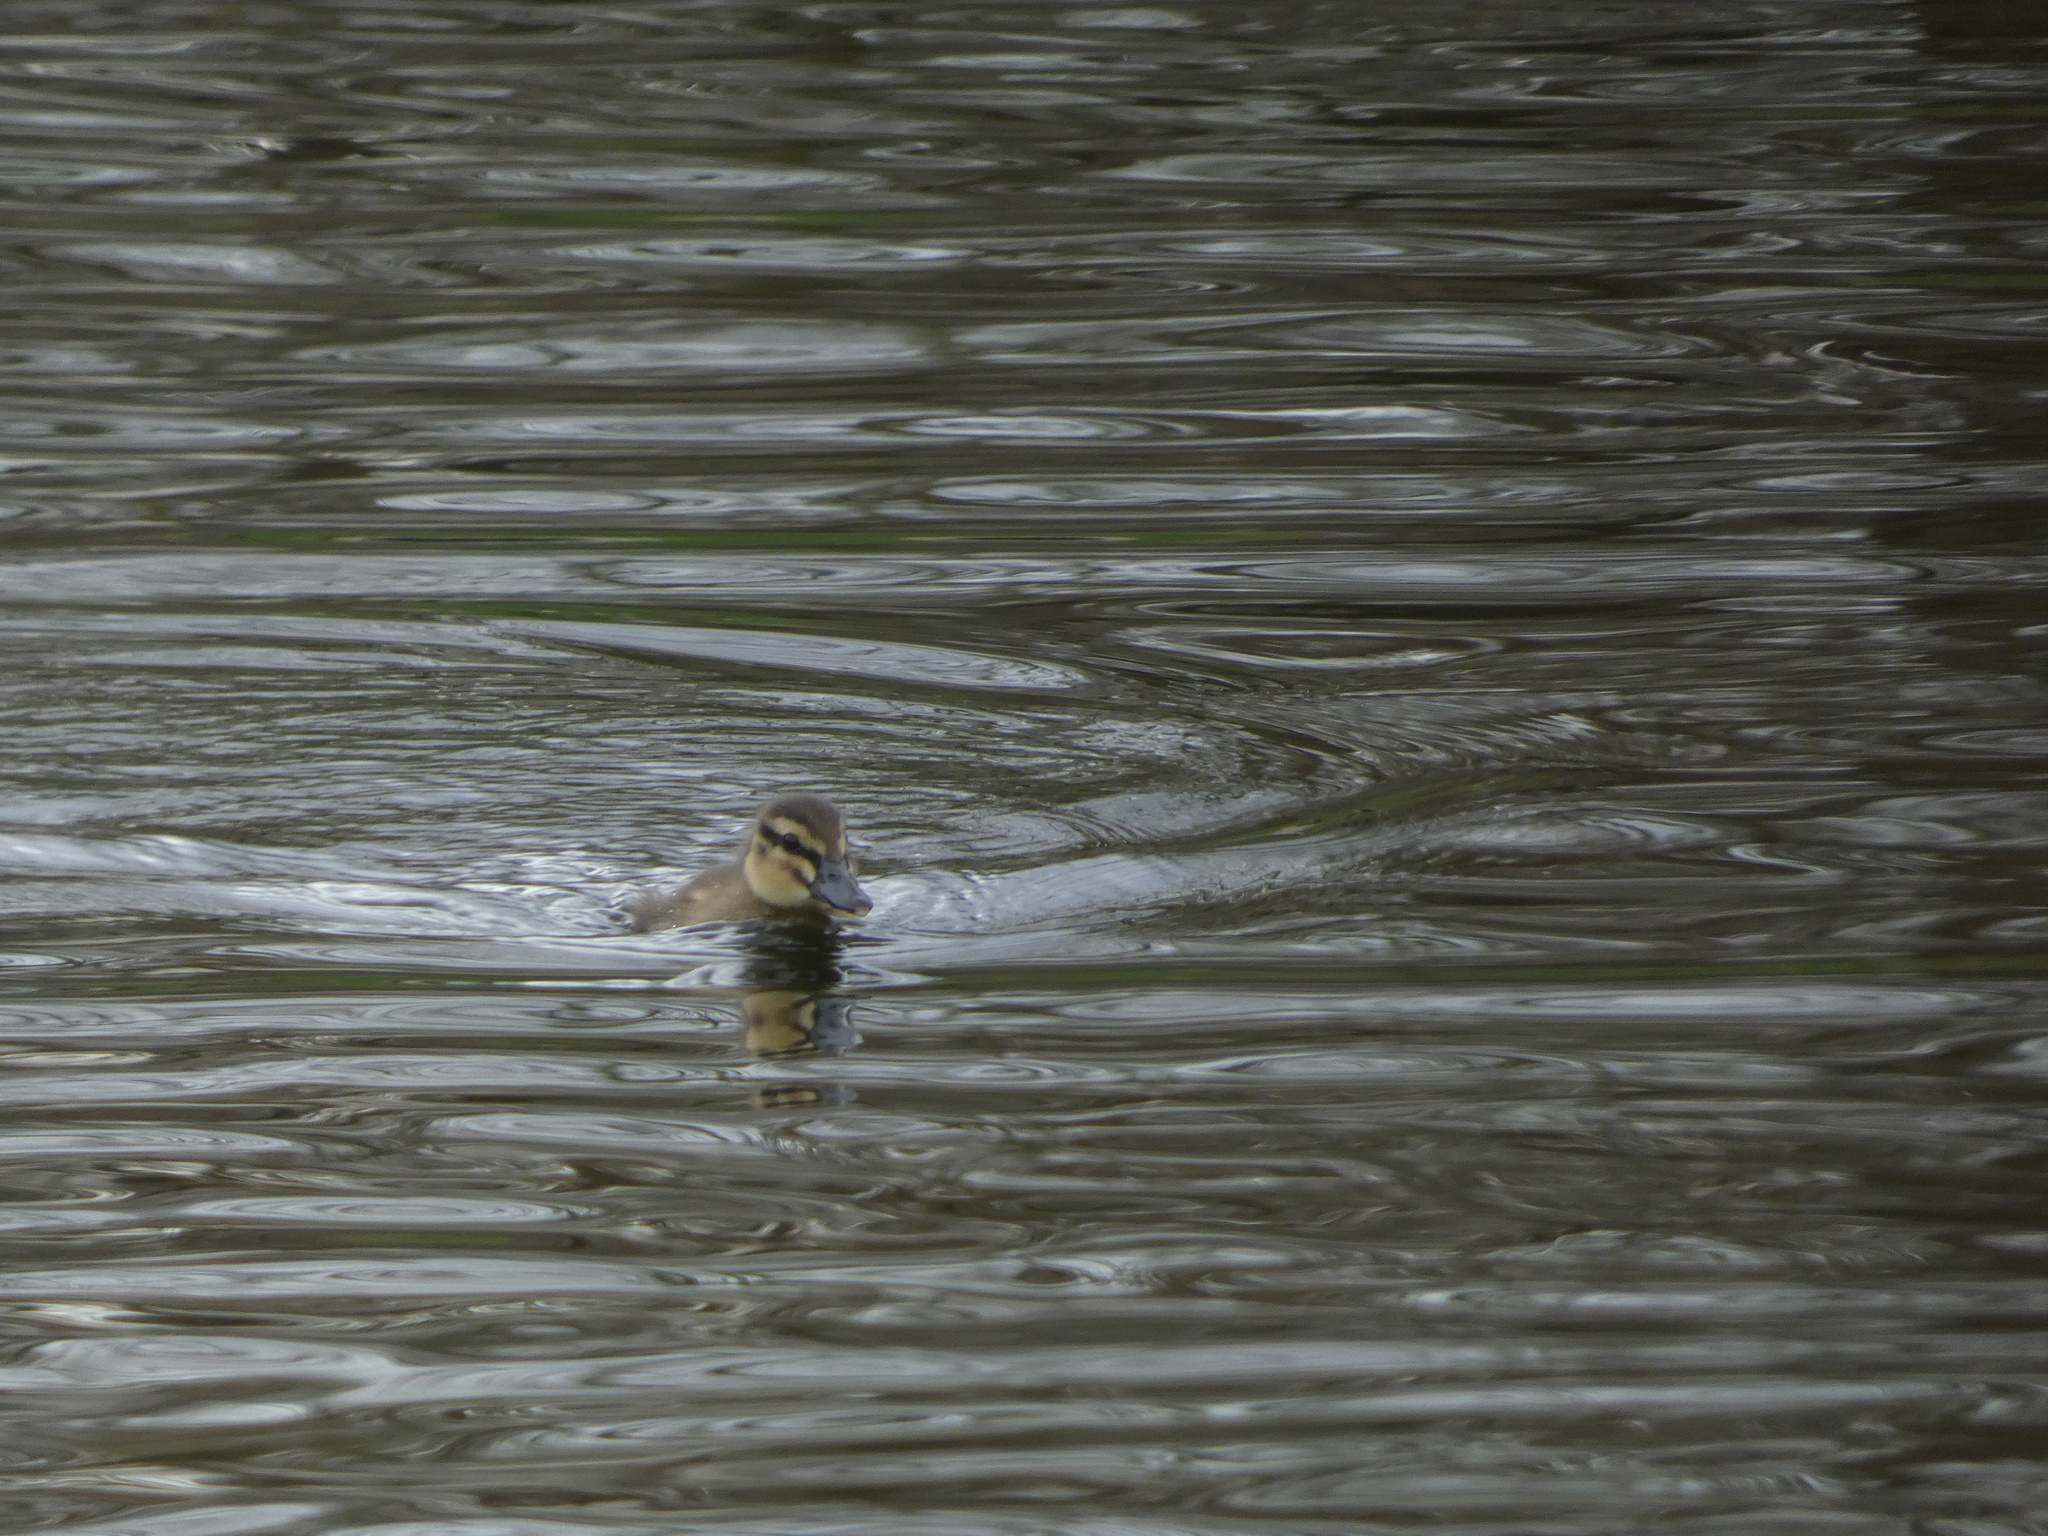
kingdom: Animalia
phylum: Chordata
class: Aves
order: Anseriformes
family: Anatidae
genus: Anas
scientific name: Anas platyrhynchos
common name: Mallard
